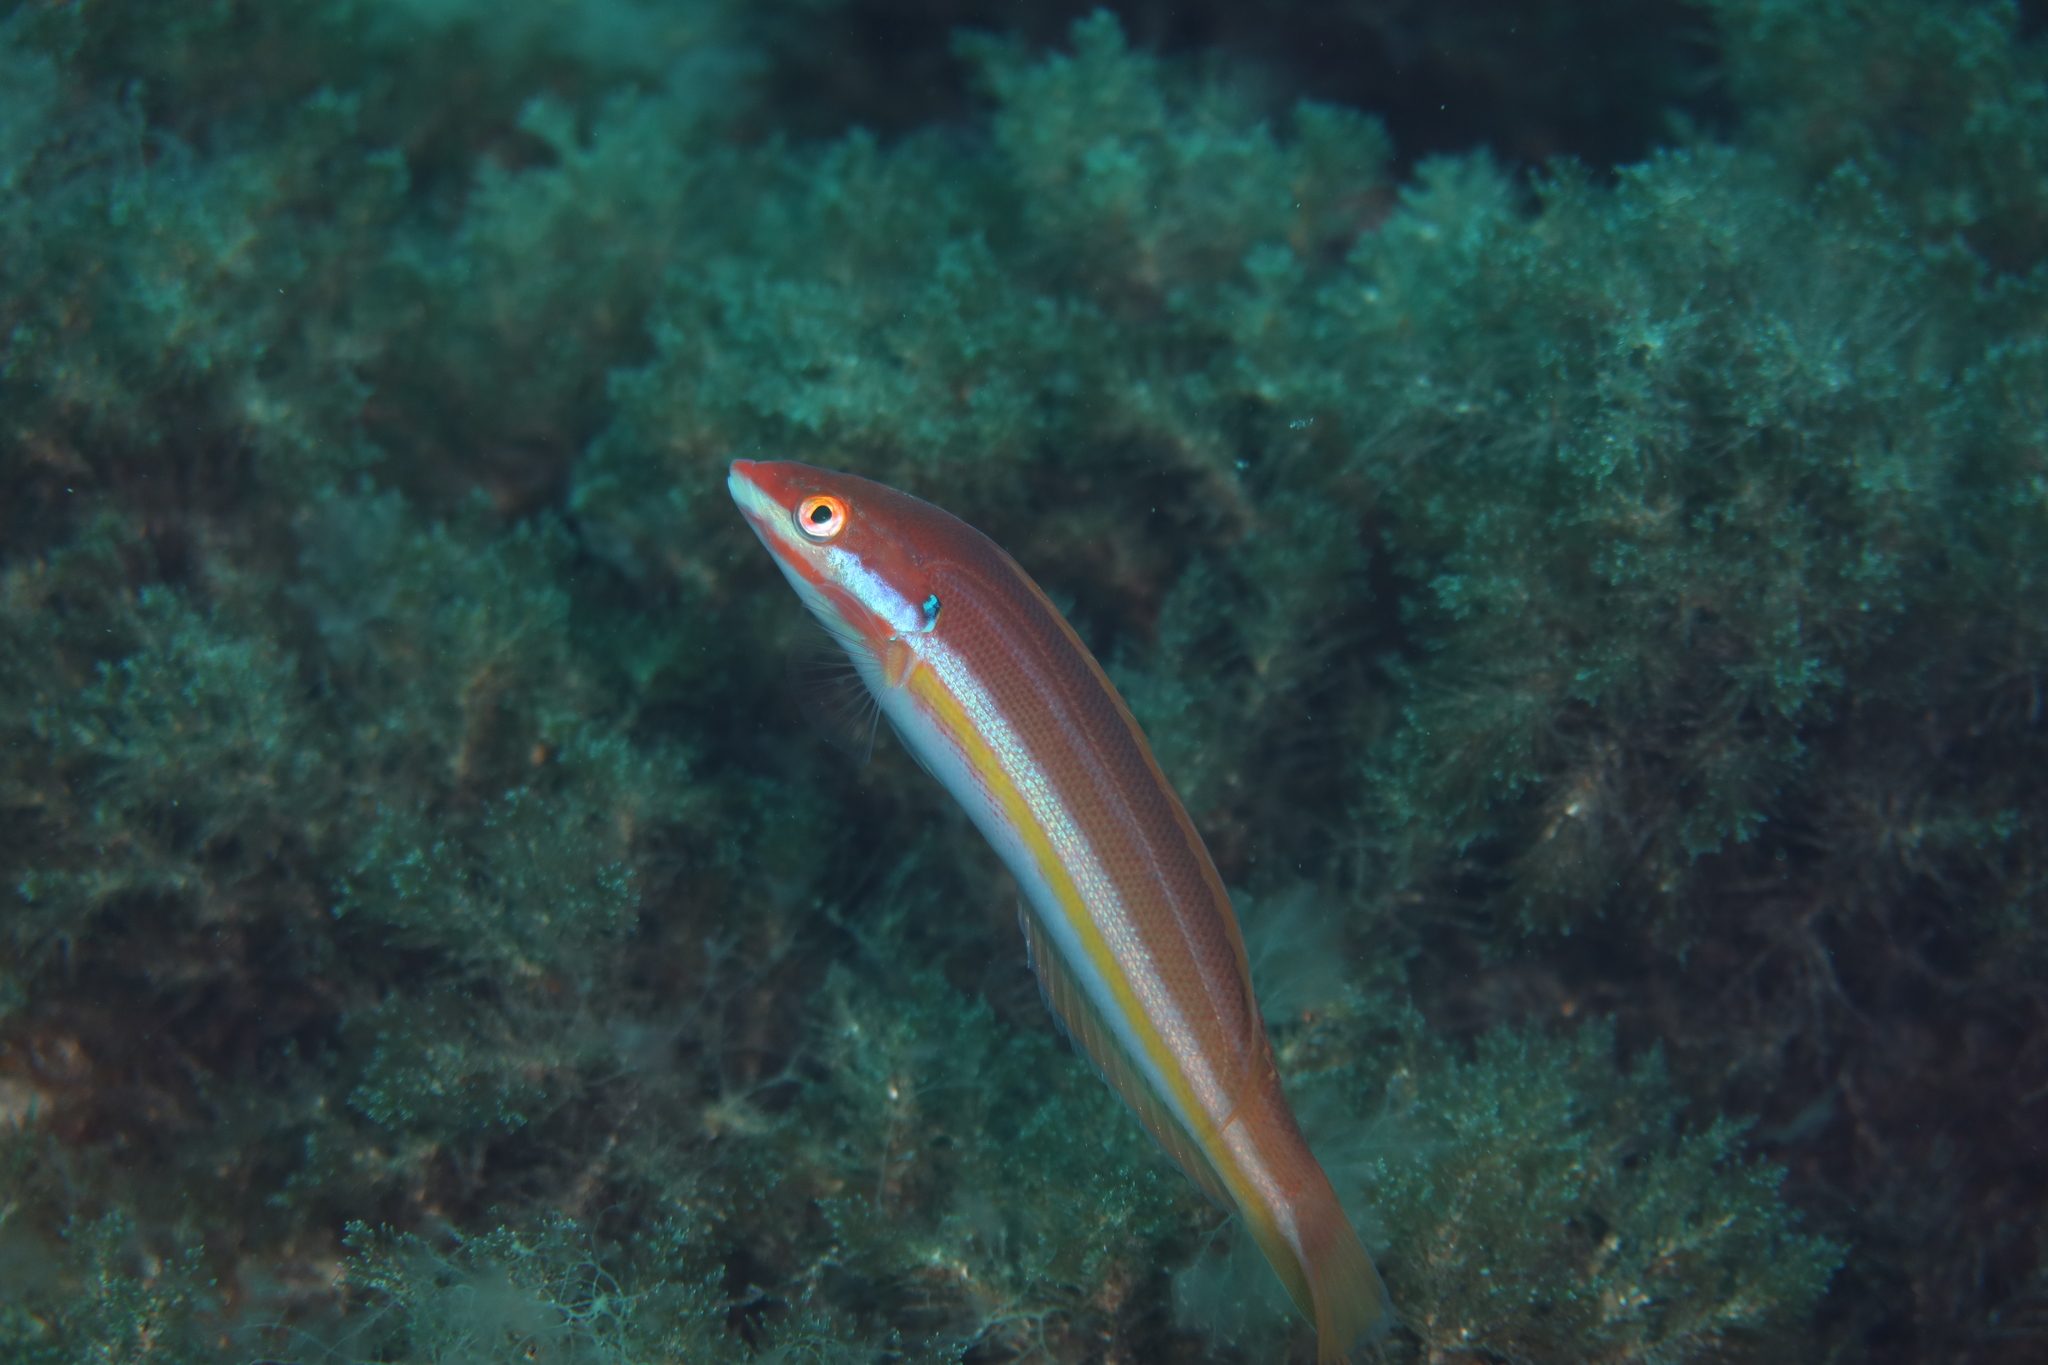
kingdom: Animalia
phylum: Chordata
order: Perciformes
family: Labridae
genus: Coris
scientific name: Coris
